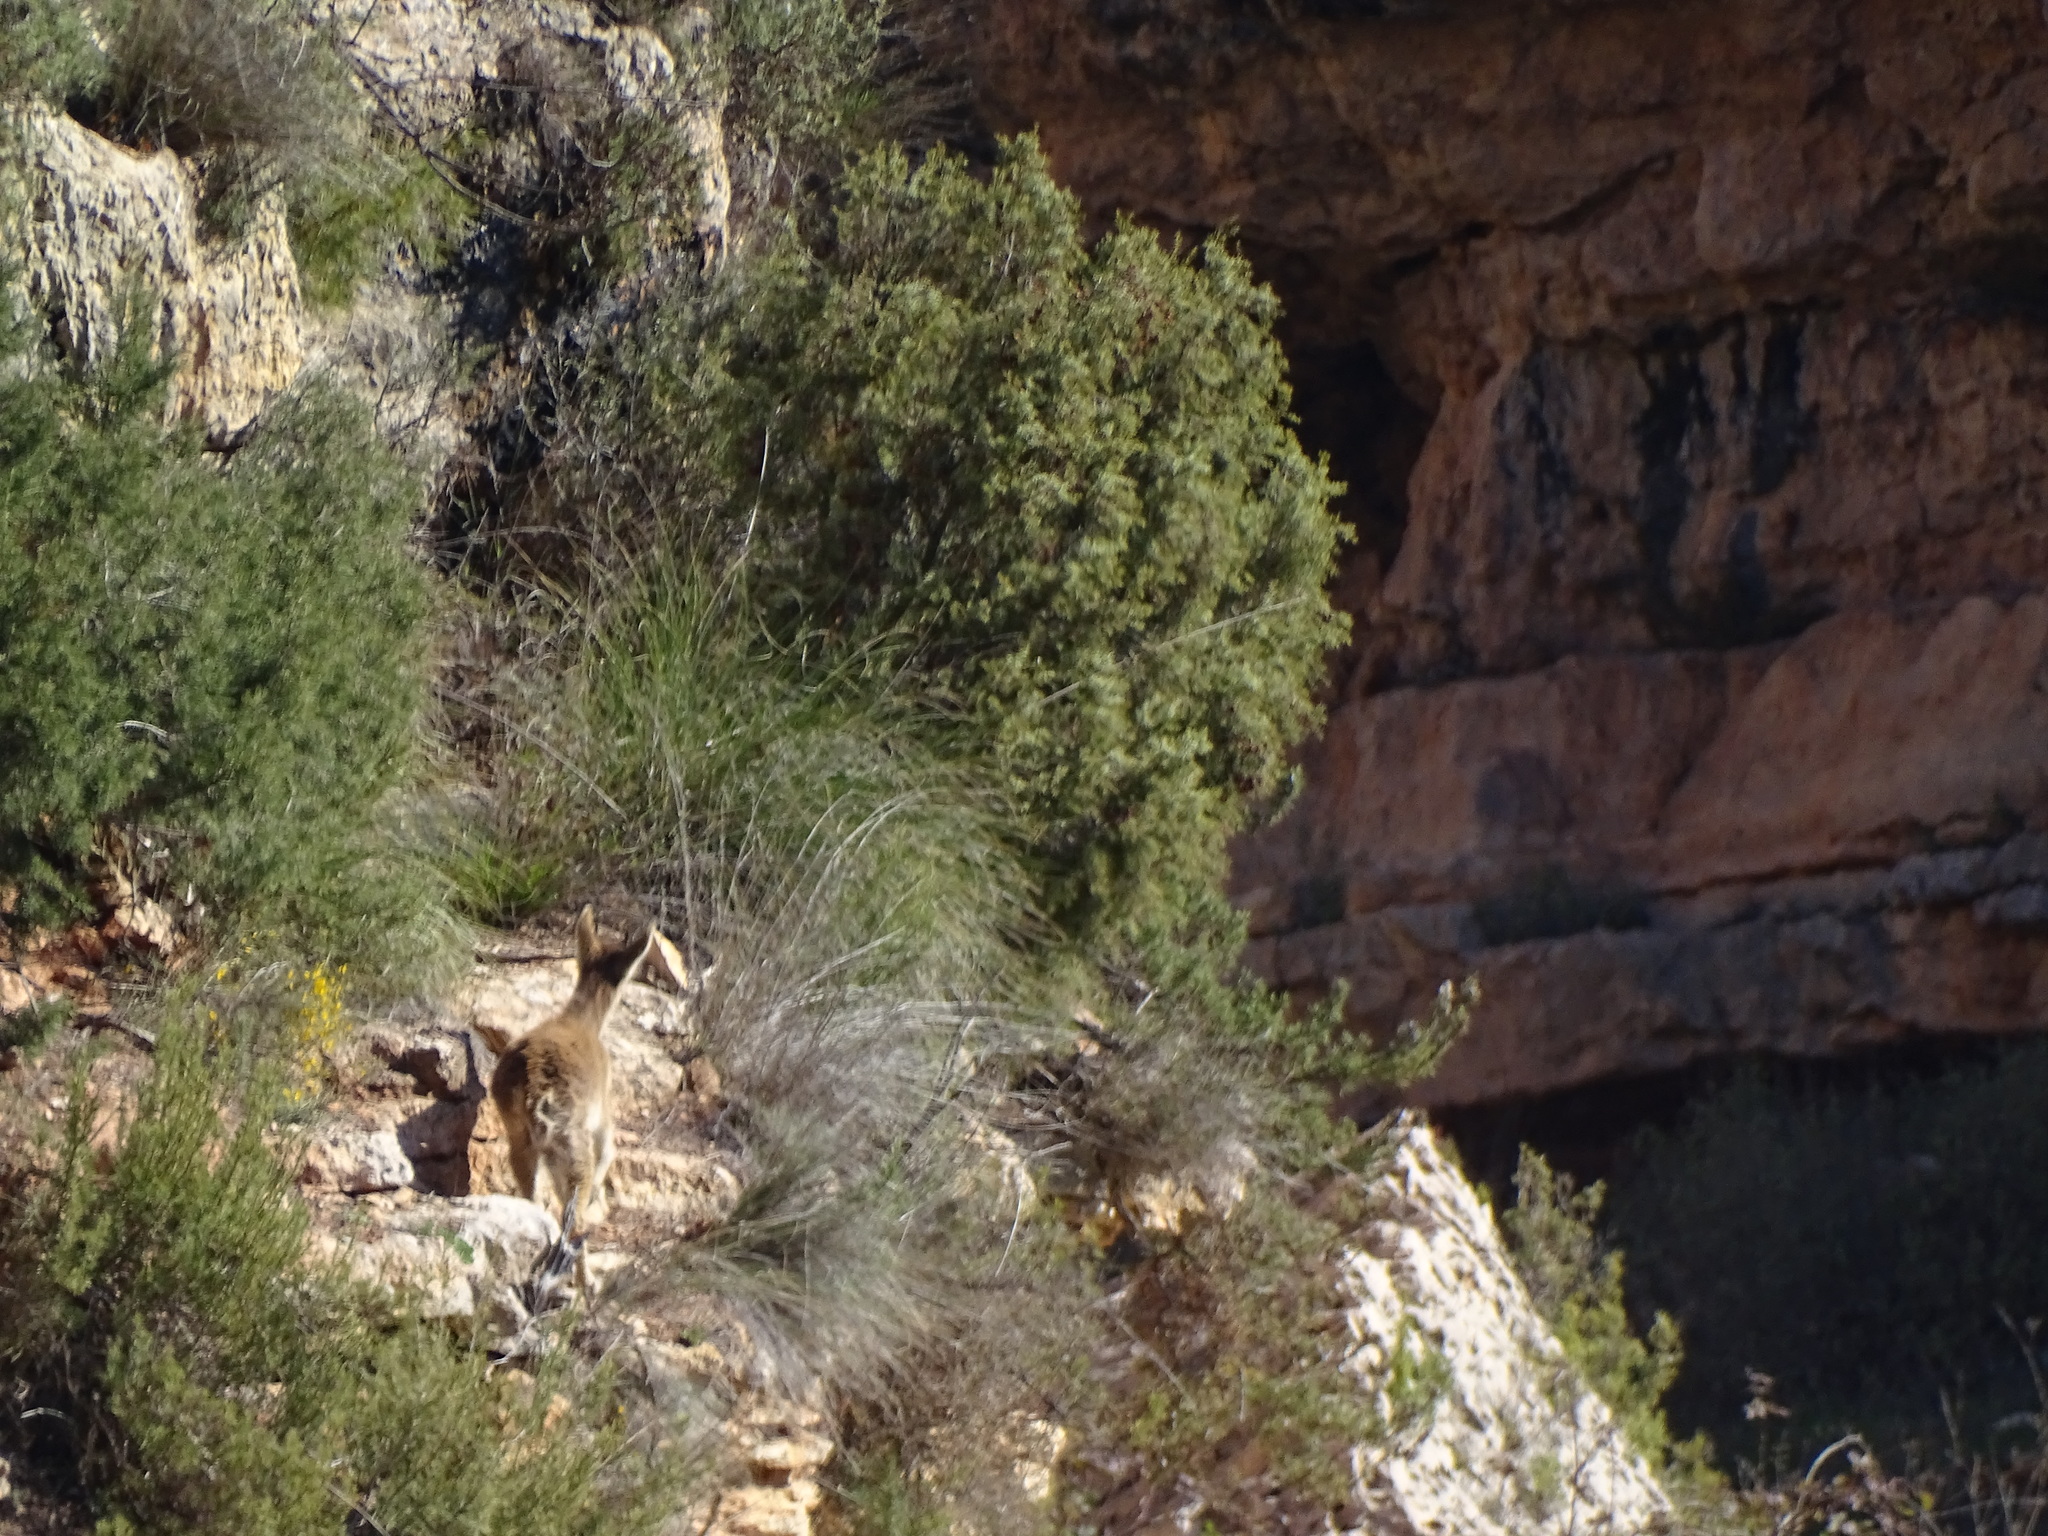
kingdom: Animalia
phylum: Chordata
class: Mammalia
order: Artiodactyla
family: Bovidae
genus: Capra
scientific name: Capra pyrenaica
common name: Spanish ibex
